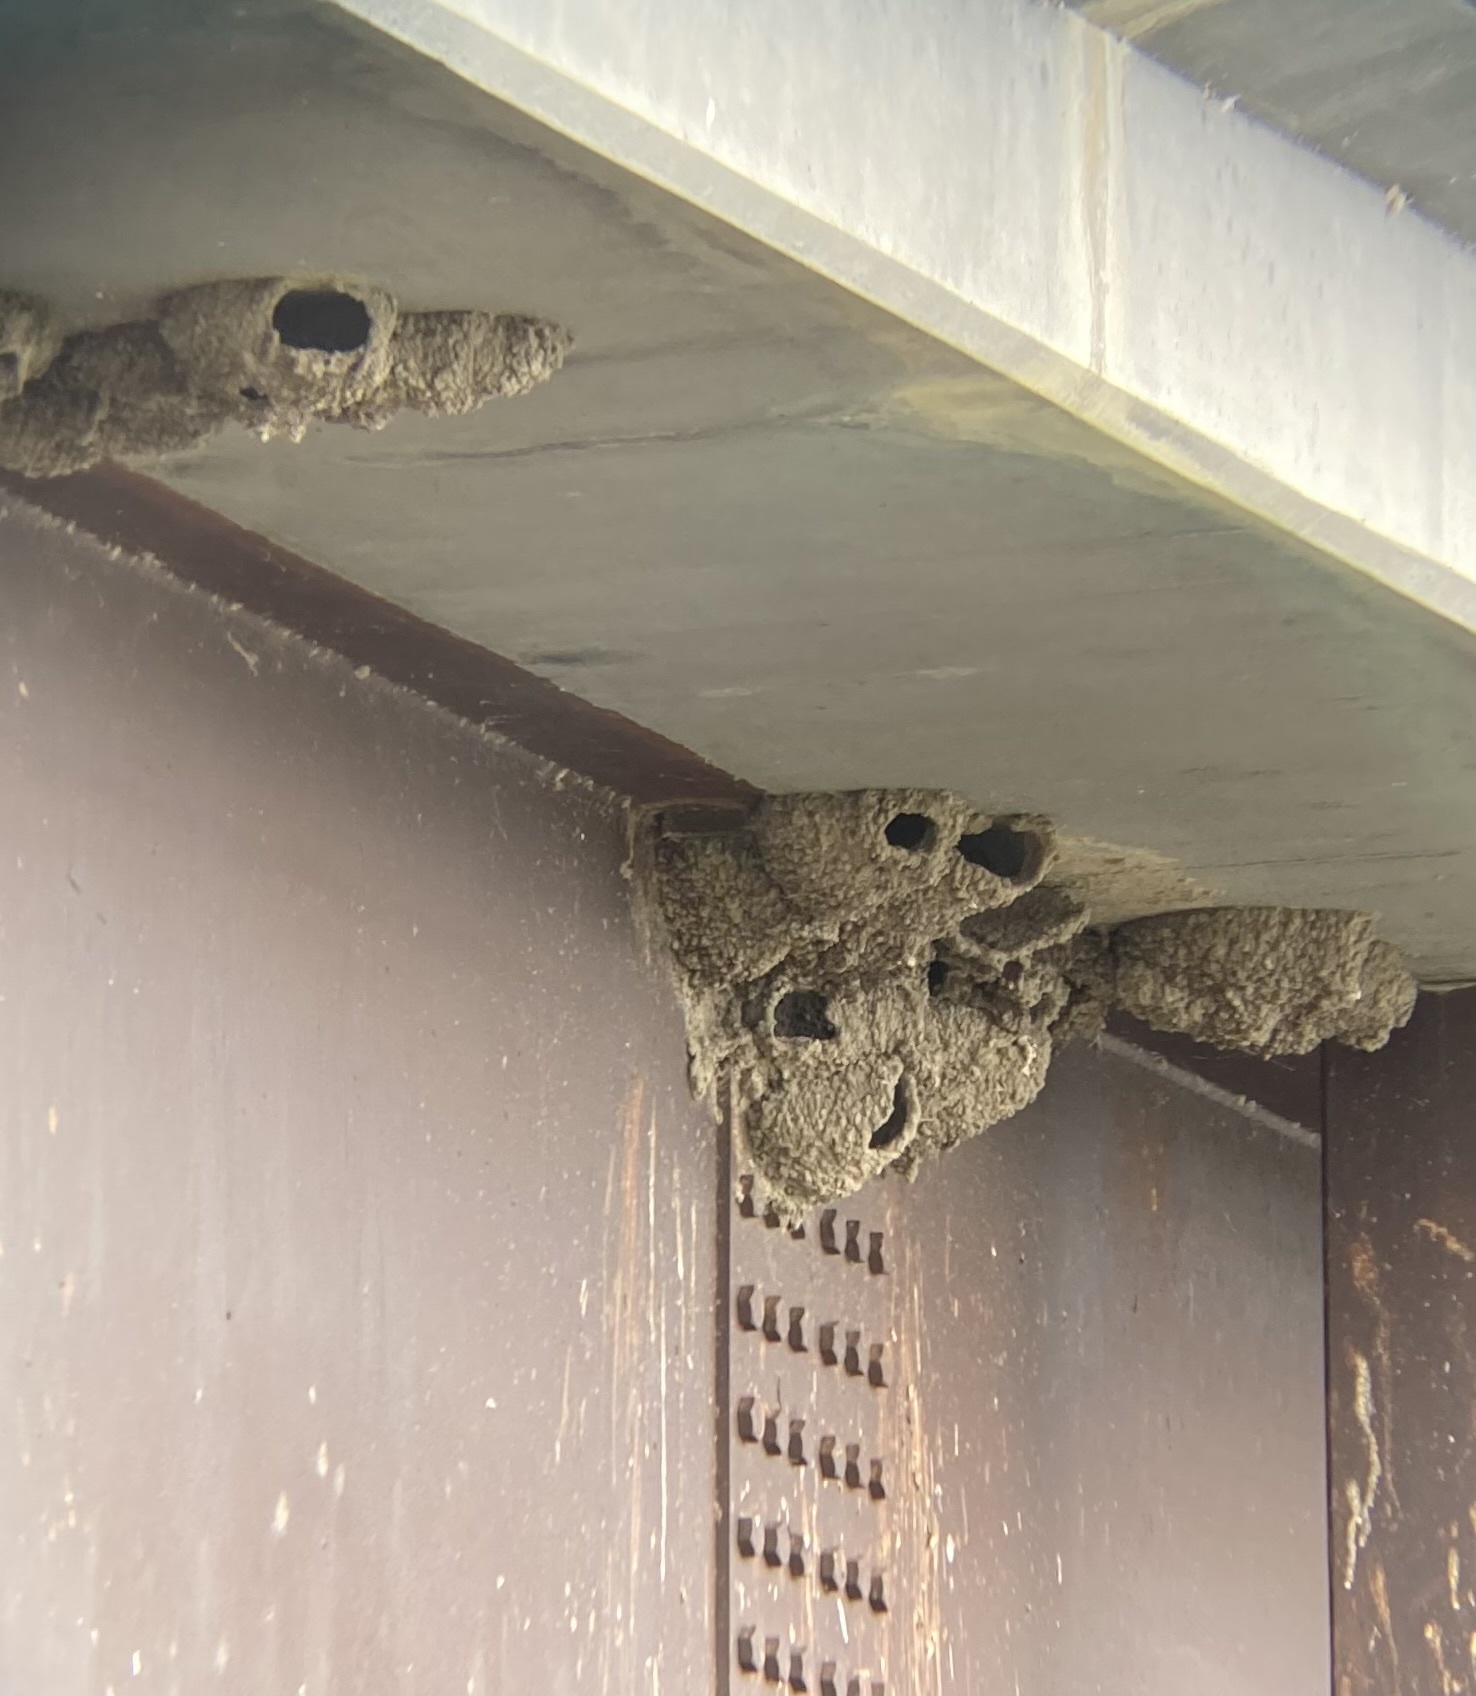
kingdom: Animalia
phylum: Chordata
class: Aves
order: Passeriformes
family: Hirundinidae
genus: Petrochelidon
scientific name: Petrochelidon pyrrhonota
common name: American cliff swallow
